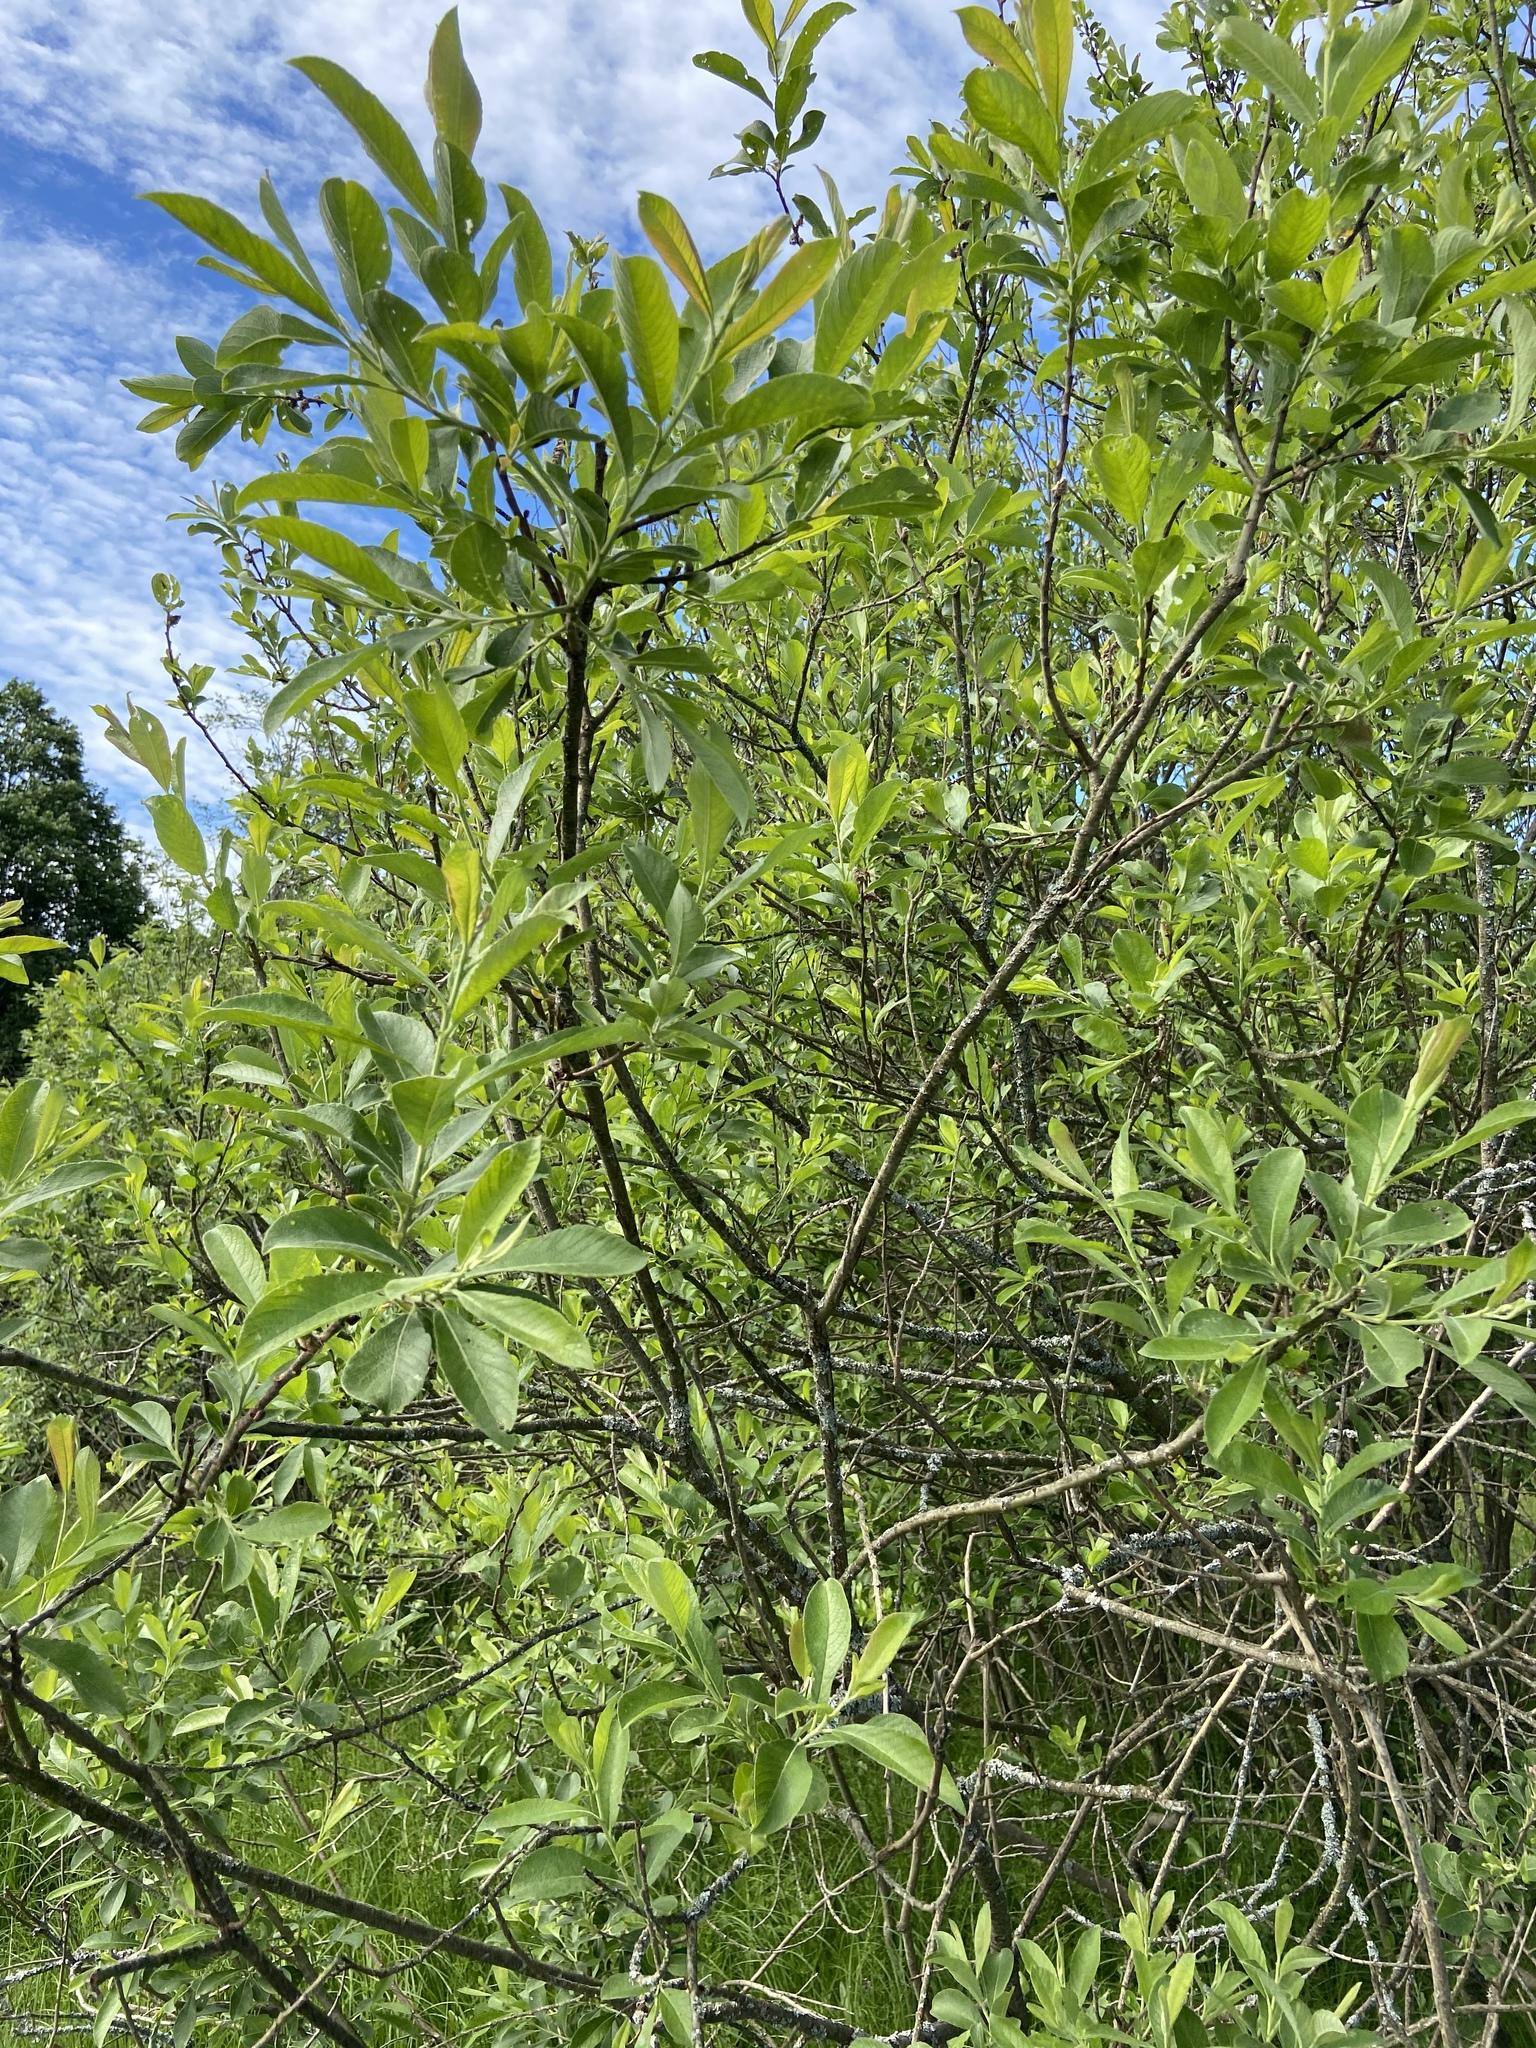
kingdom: Plantae
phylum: Tracheophyta
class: Magnoliopsida
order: Malpighiales
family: Salicaceae
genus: Salix
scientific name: Salix cinerea
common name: Common sallow
